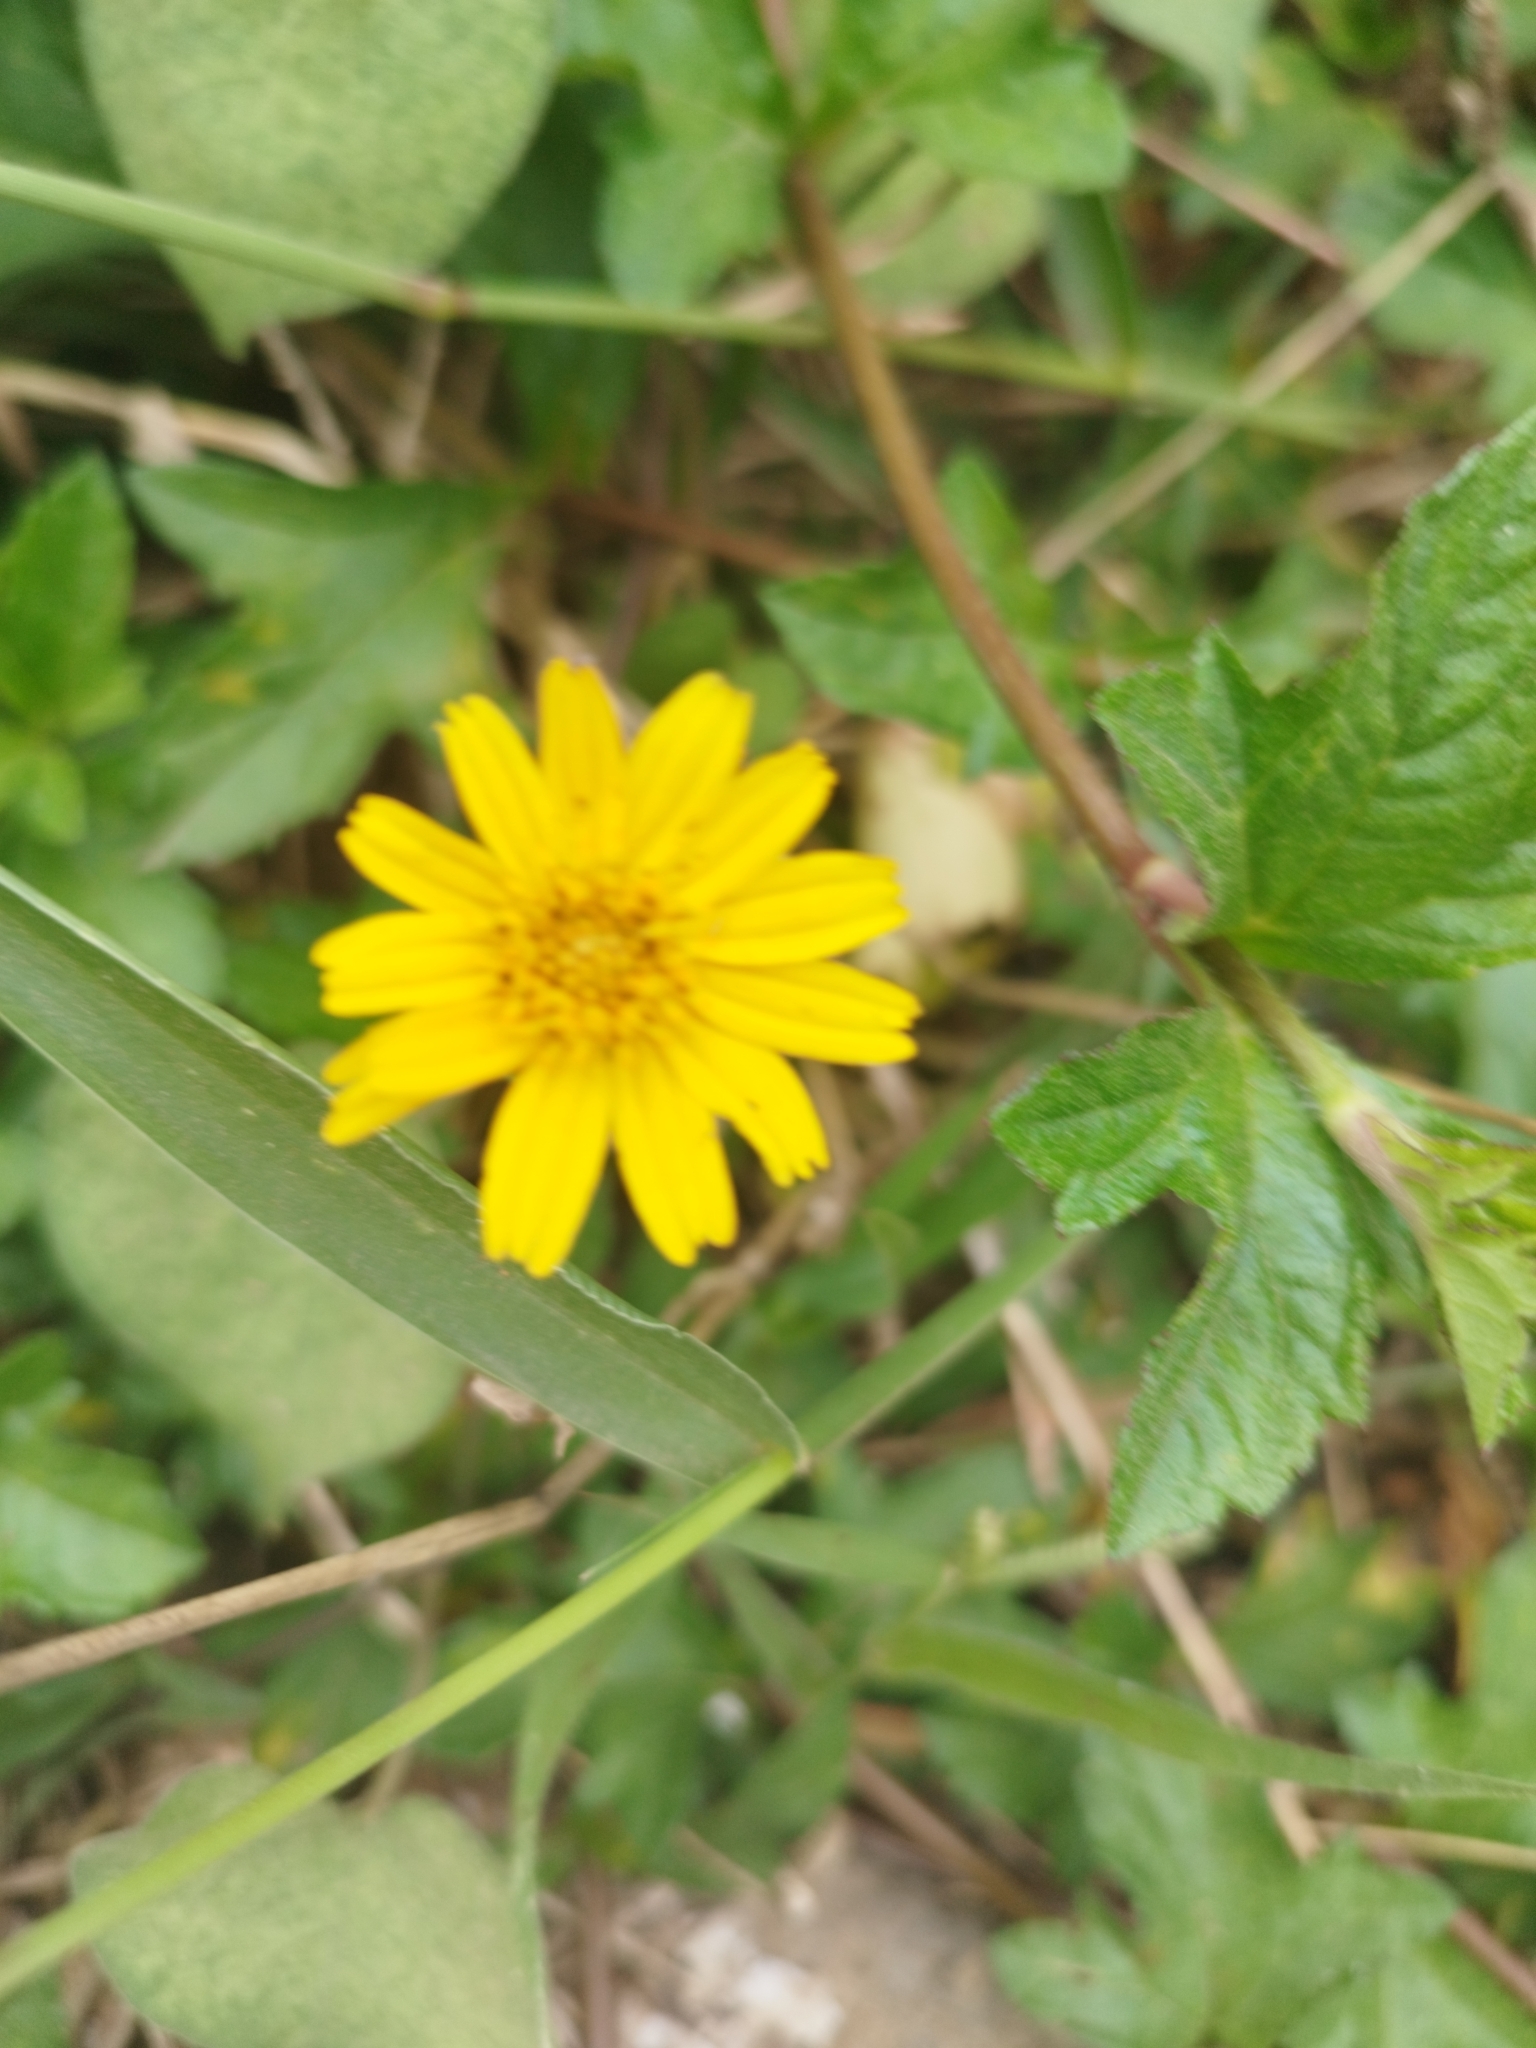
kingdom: Plantae
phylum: Tracheophyta
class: Magnoliopsida
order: Asterales
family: Asteraceae
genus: Sphagneticola
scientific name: Sphagneticola trilobata
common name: Bay biscayne creeping-oxeye
